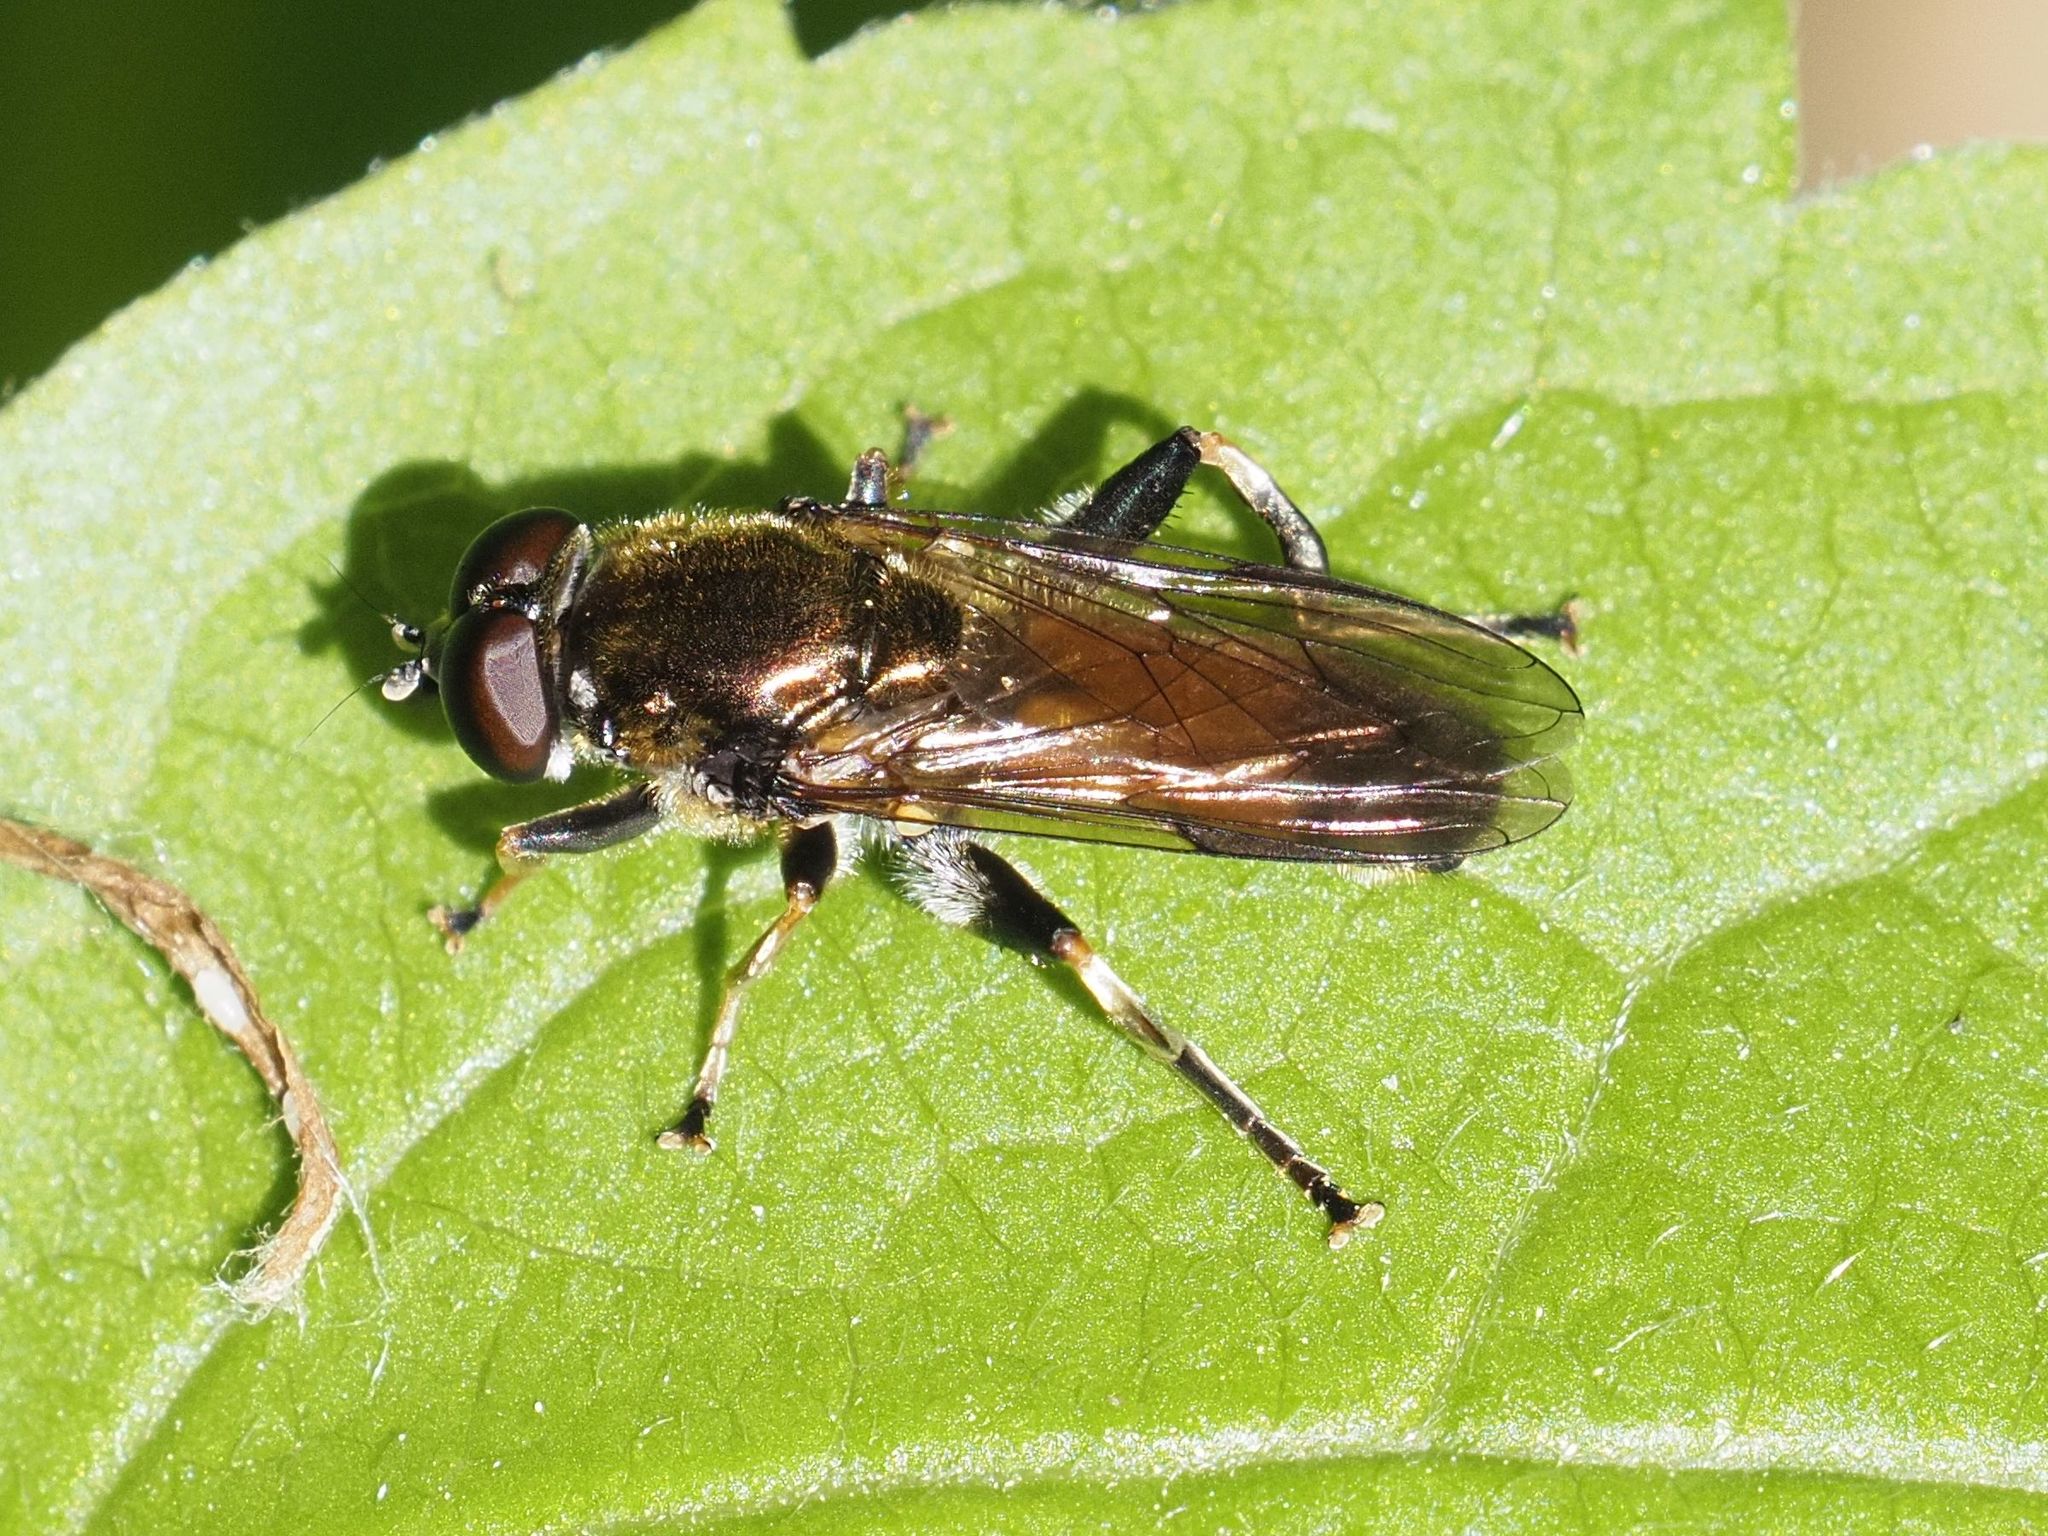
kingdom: Animalia
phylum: Arthropoda
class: Insecta
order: Diptera
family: Syrphidae
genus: Xylota
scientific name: Xylota segnis
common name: Brown-toed forest fly
